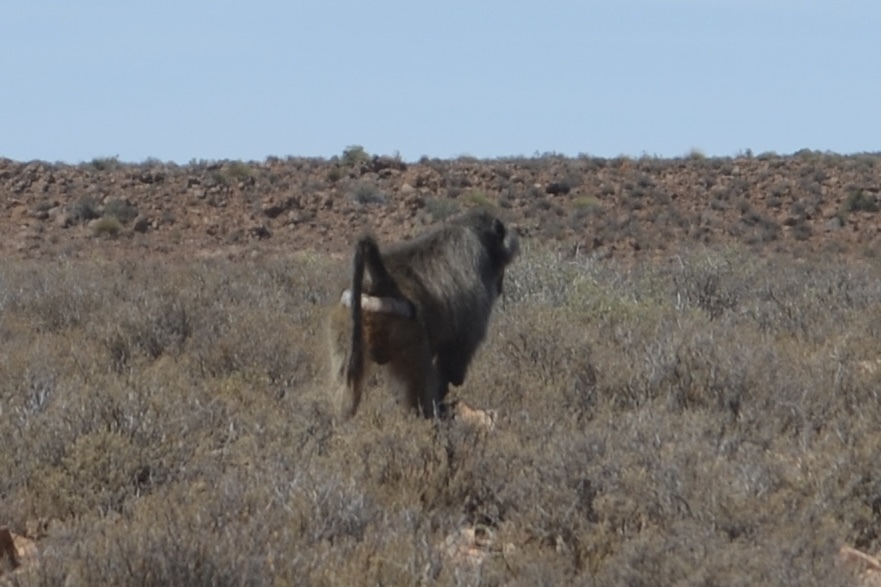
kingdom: Animalia
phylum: Chordata
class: Mammalia
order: Primates
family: Cercopithecidae
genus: Papio
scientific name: Papio ursinus
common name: Chacma baboon
